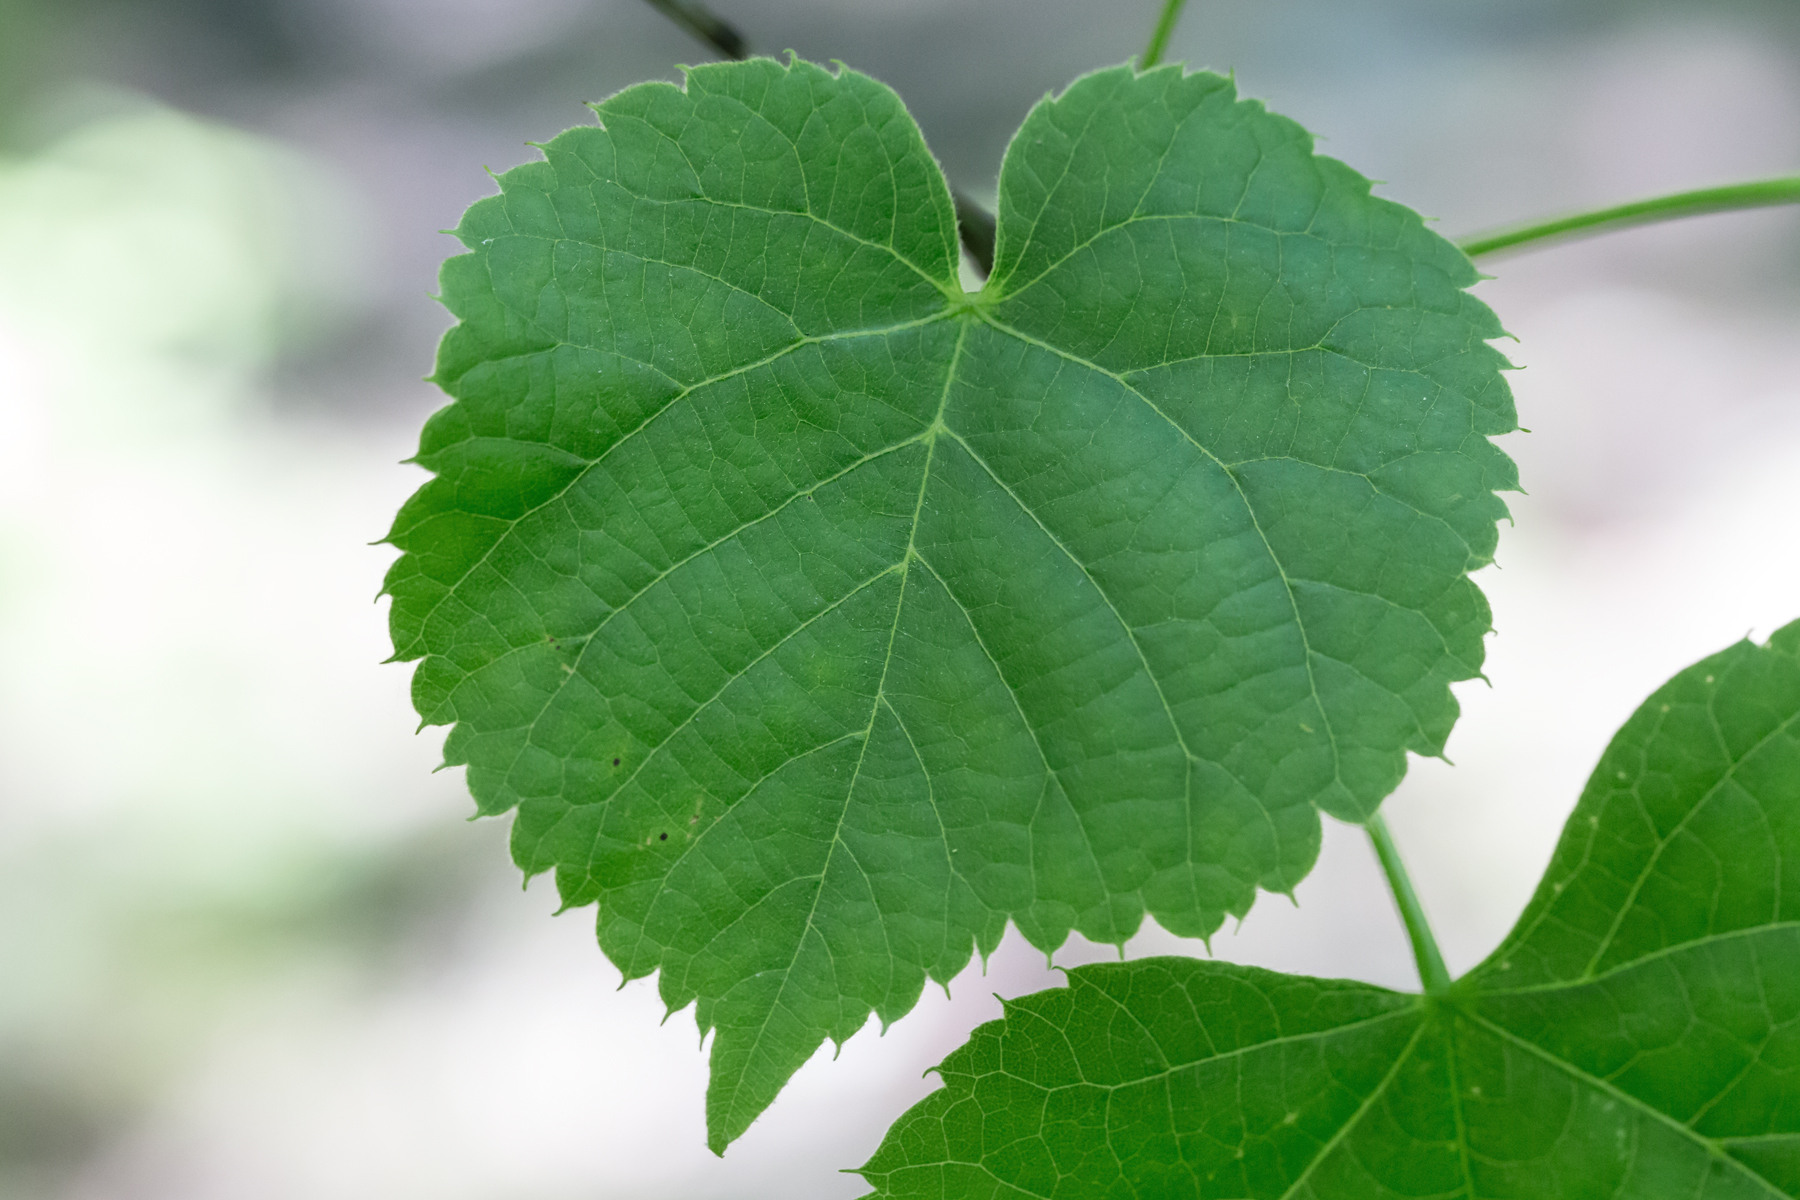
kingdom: Plantae
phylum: Tracheophyta
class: Magnoliopsida
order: Malvales
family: Malvaceae
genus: Tilia
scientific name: Tilia americana
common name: Basswood
